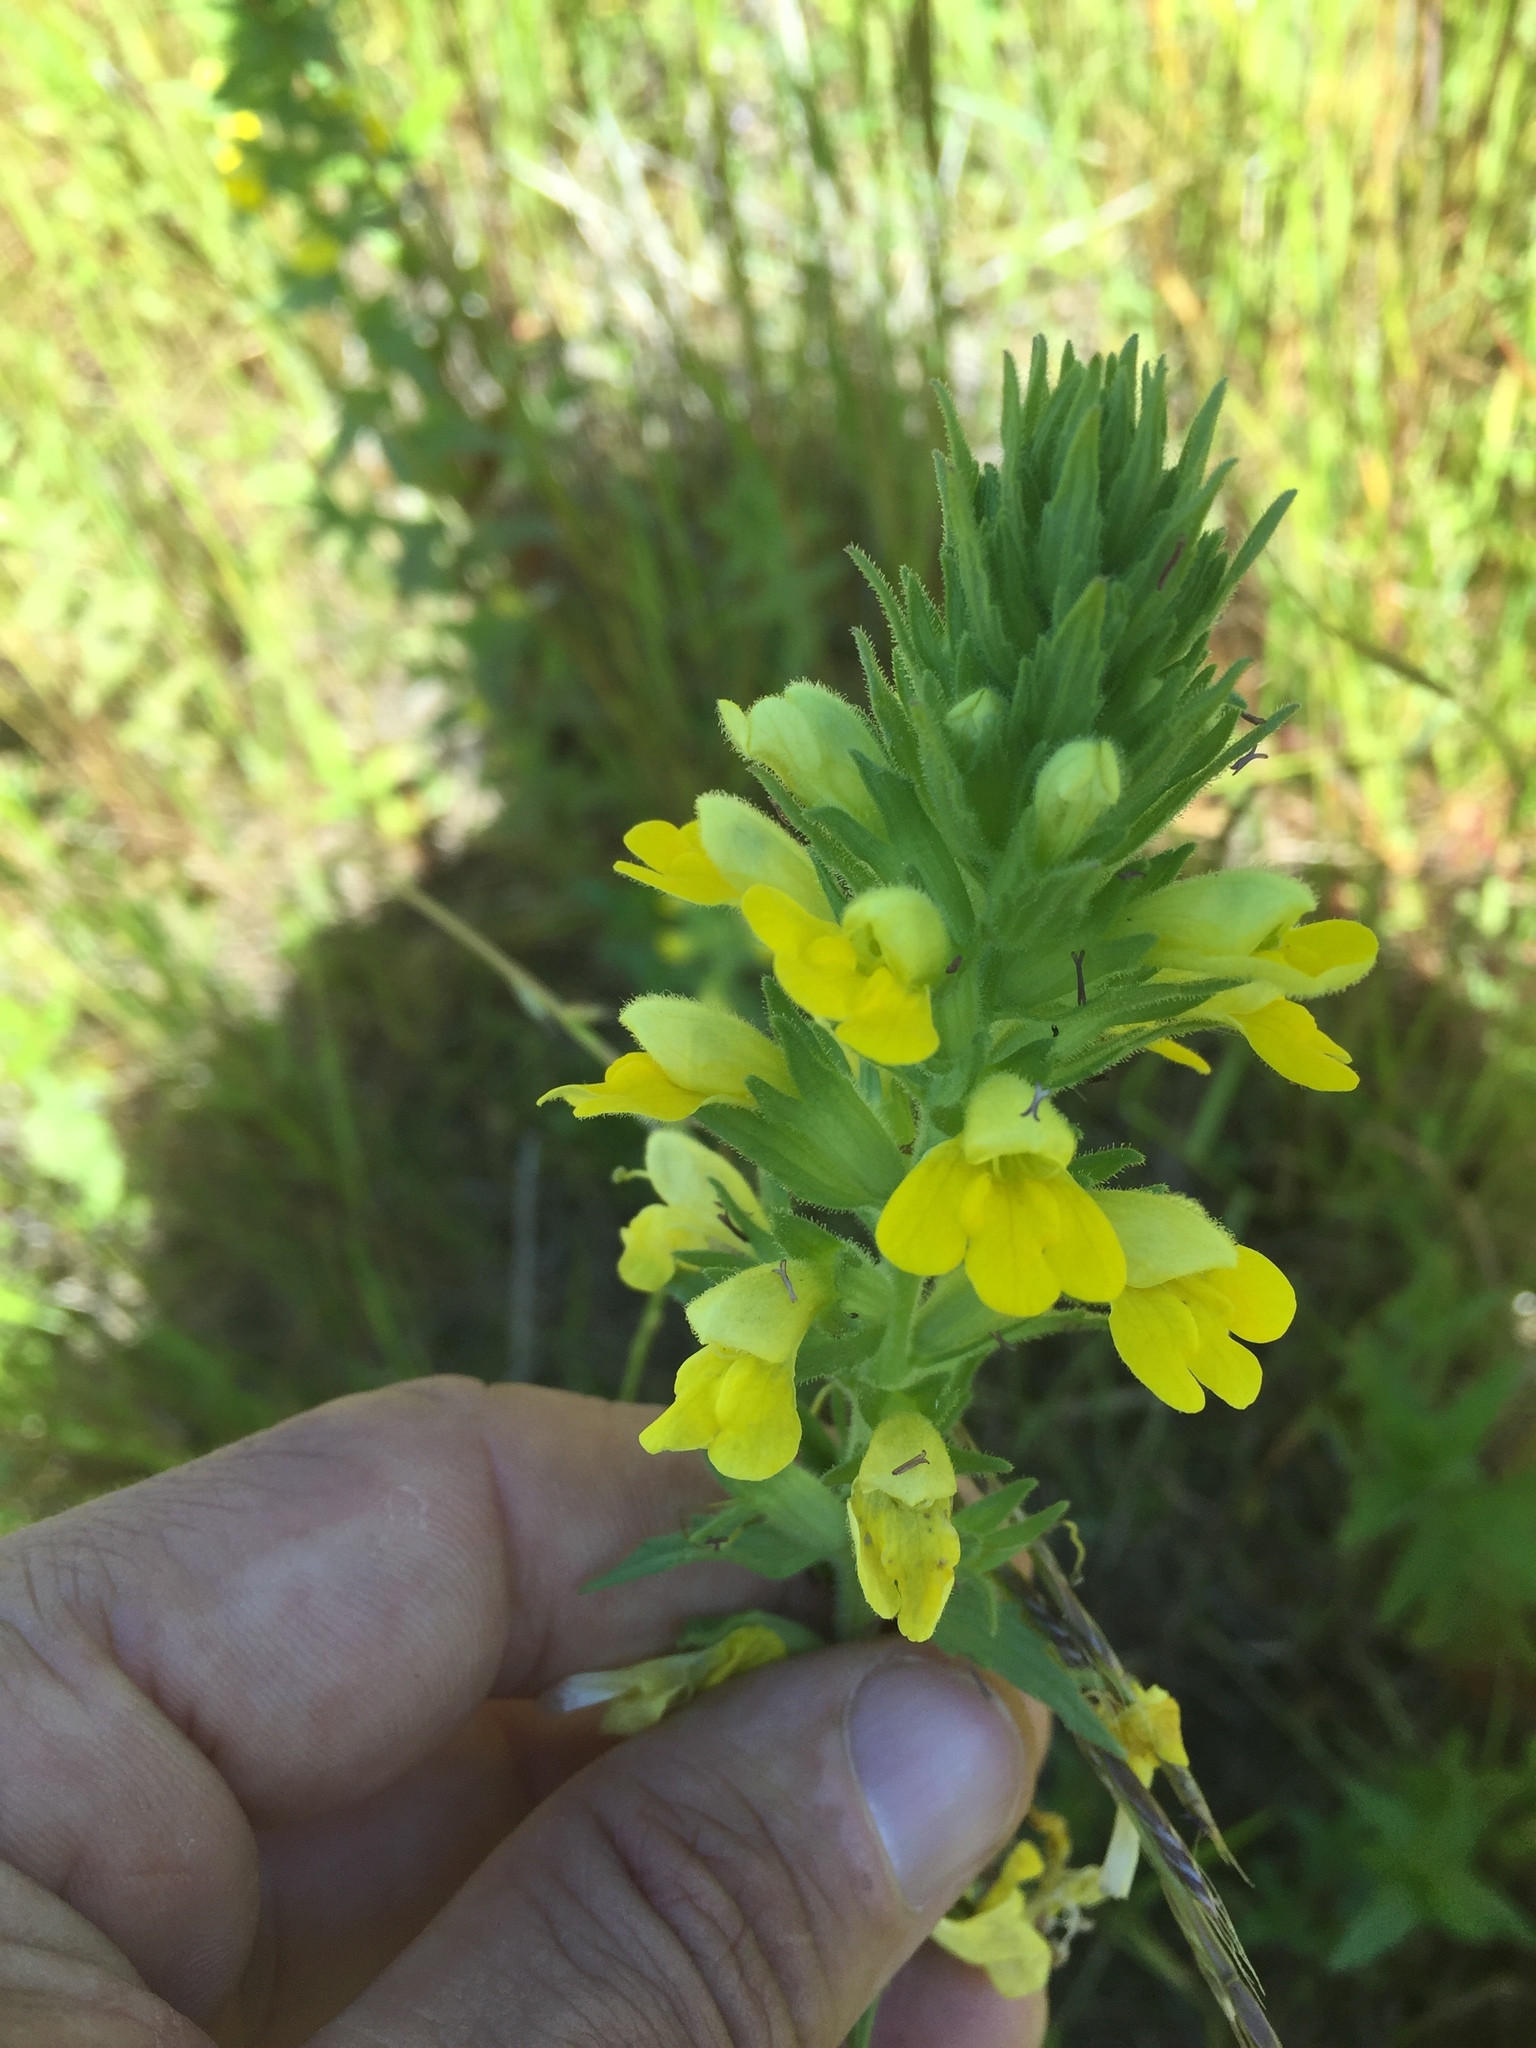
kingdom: Plantae
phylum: Tracheophyta
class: Magnoliopsida
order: Lamiales
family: Orobanchaceae
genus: Bellardia
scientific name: Bellardia viscosa
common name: Sticky parentucellia
